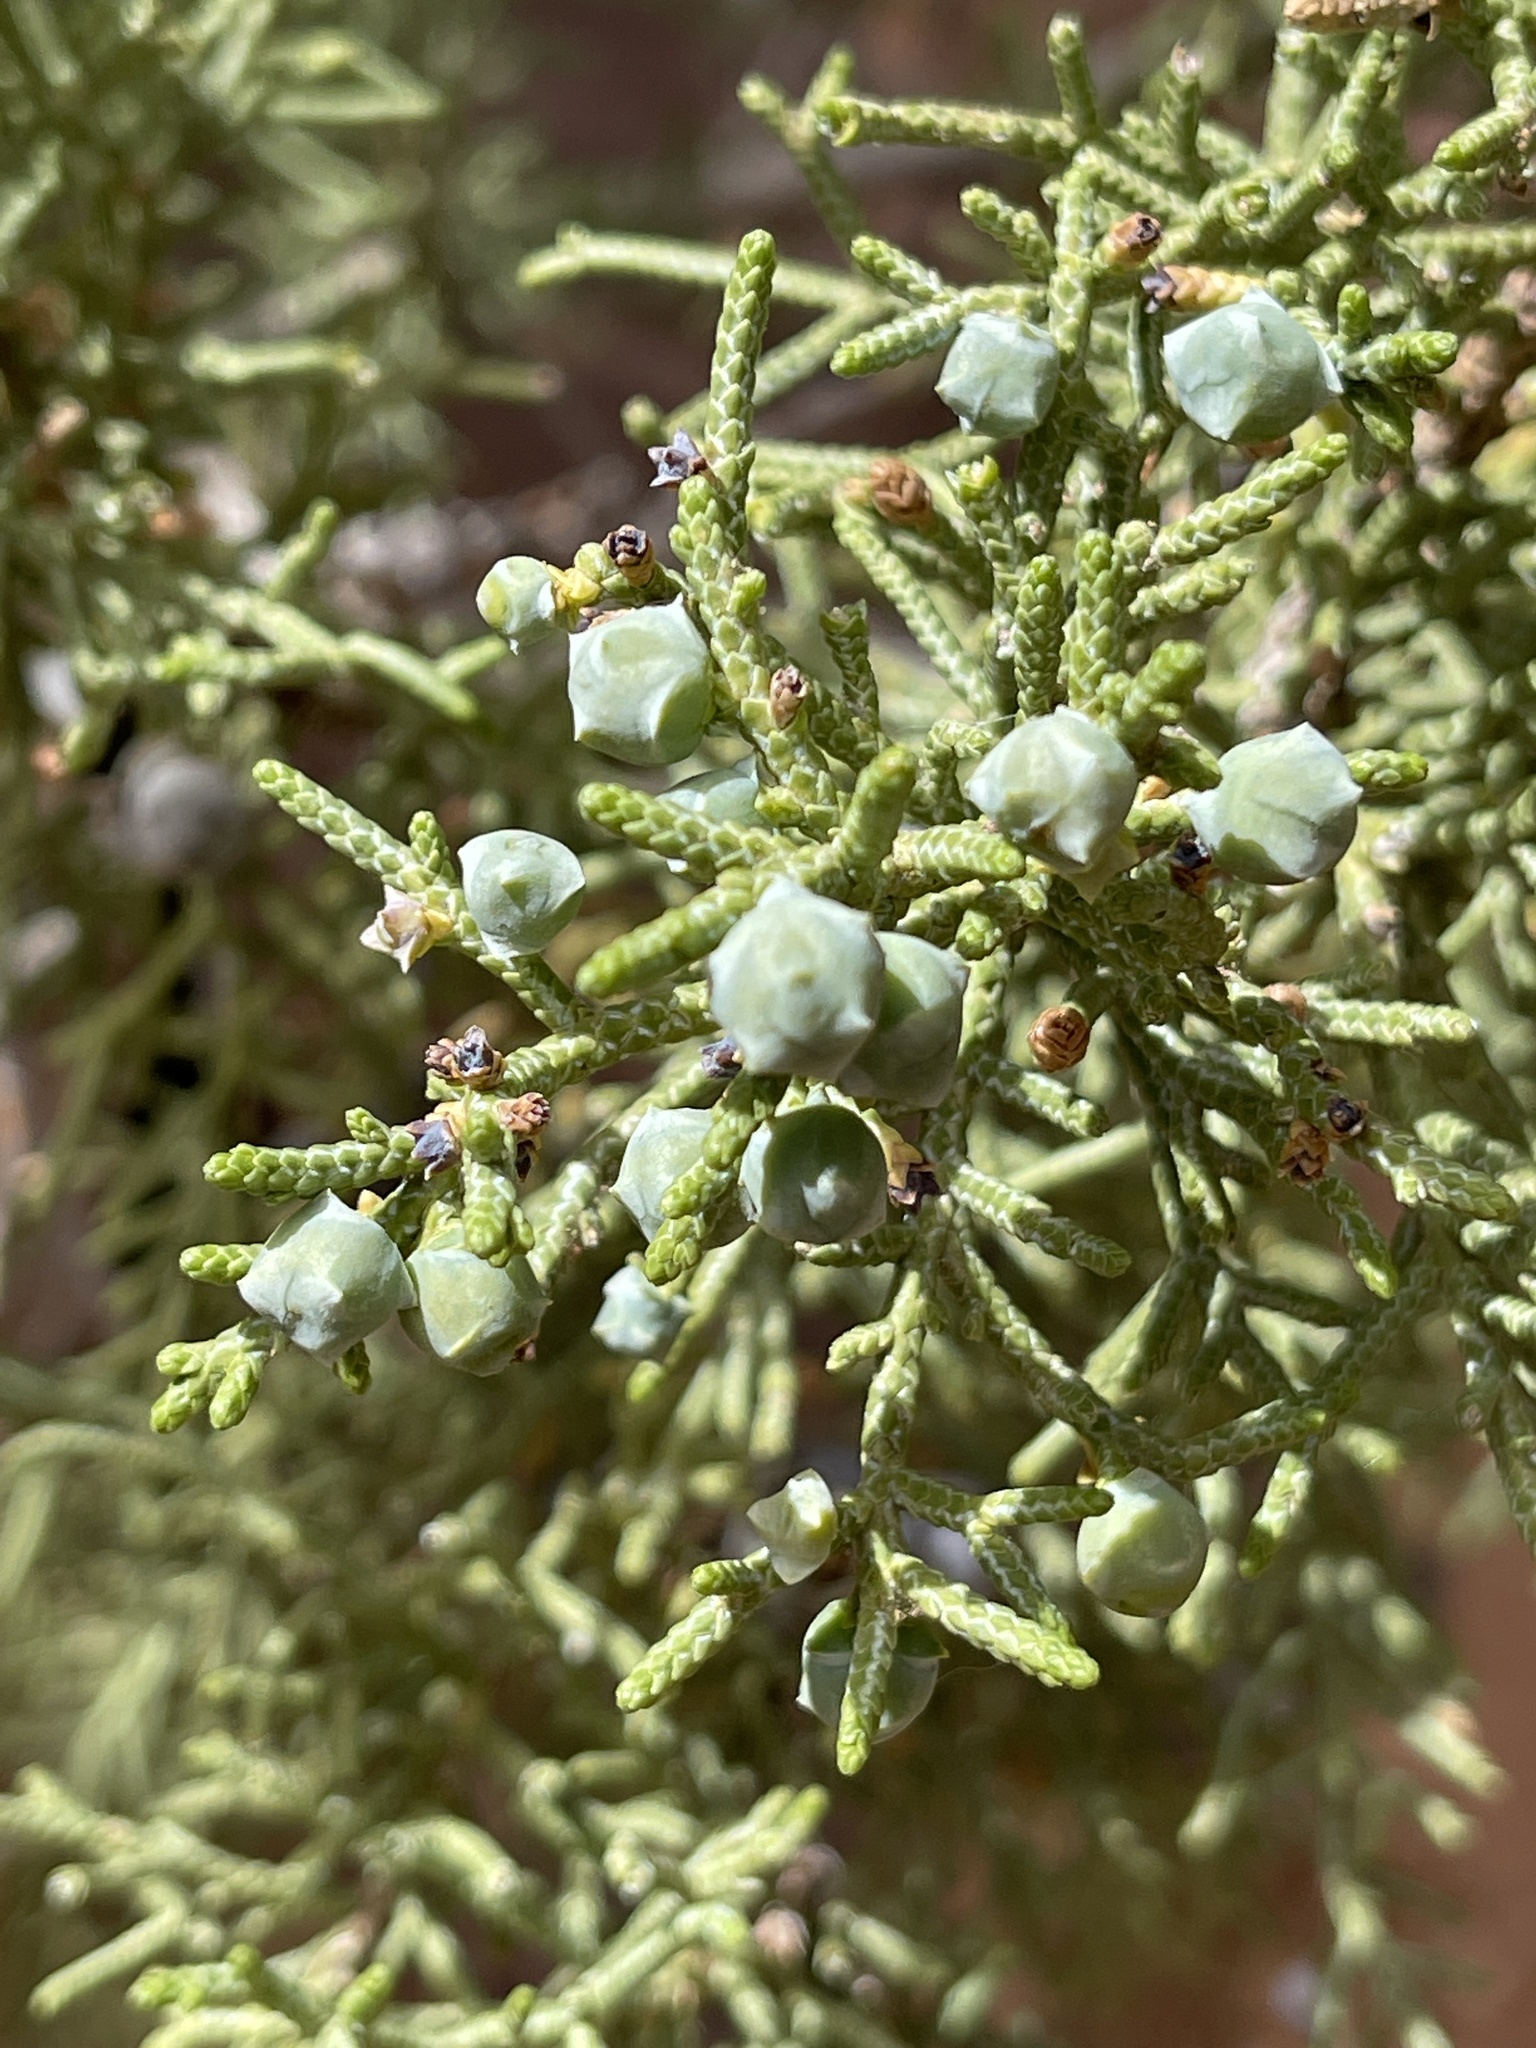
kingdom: Plantae
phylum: Tracheophyta
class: Pinopsida
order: Pinales
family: Cupressaceae
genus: Juniperus
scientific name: Juniperus osteosperma
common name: Utah juniper
